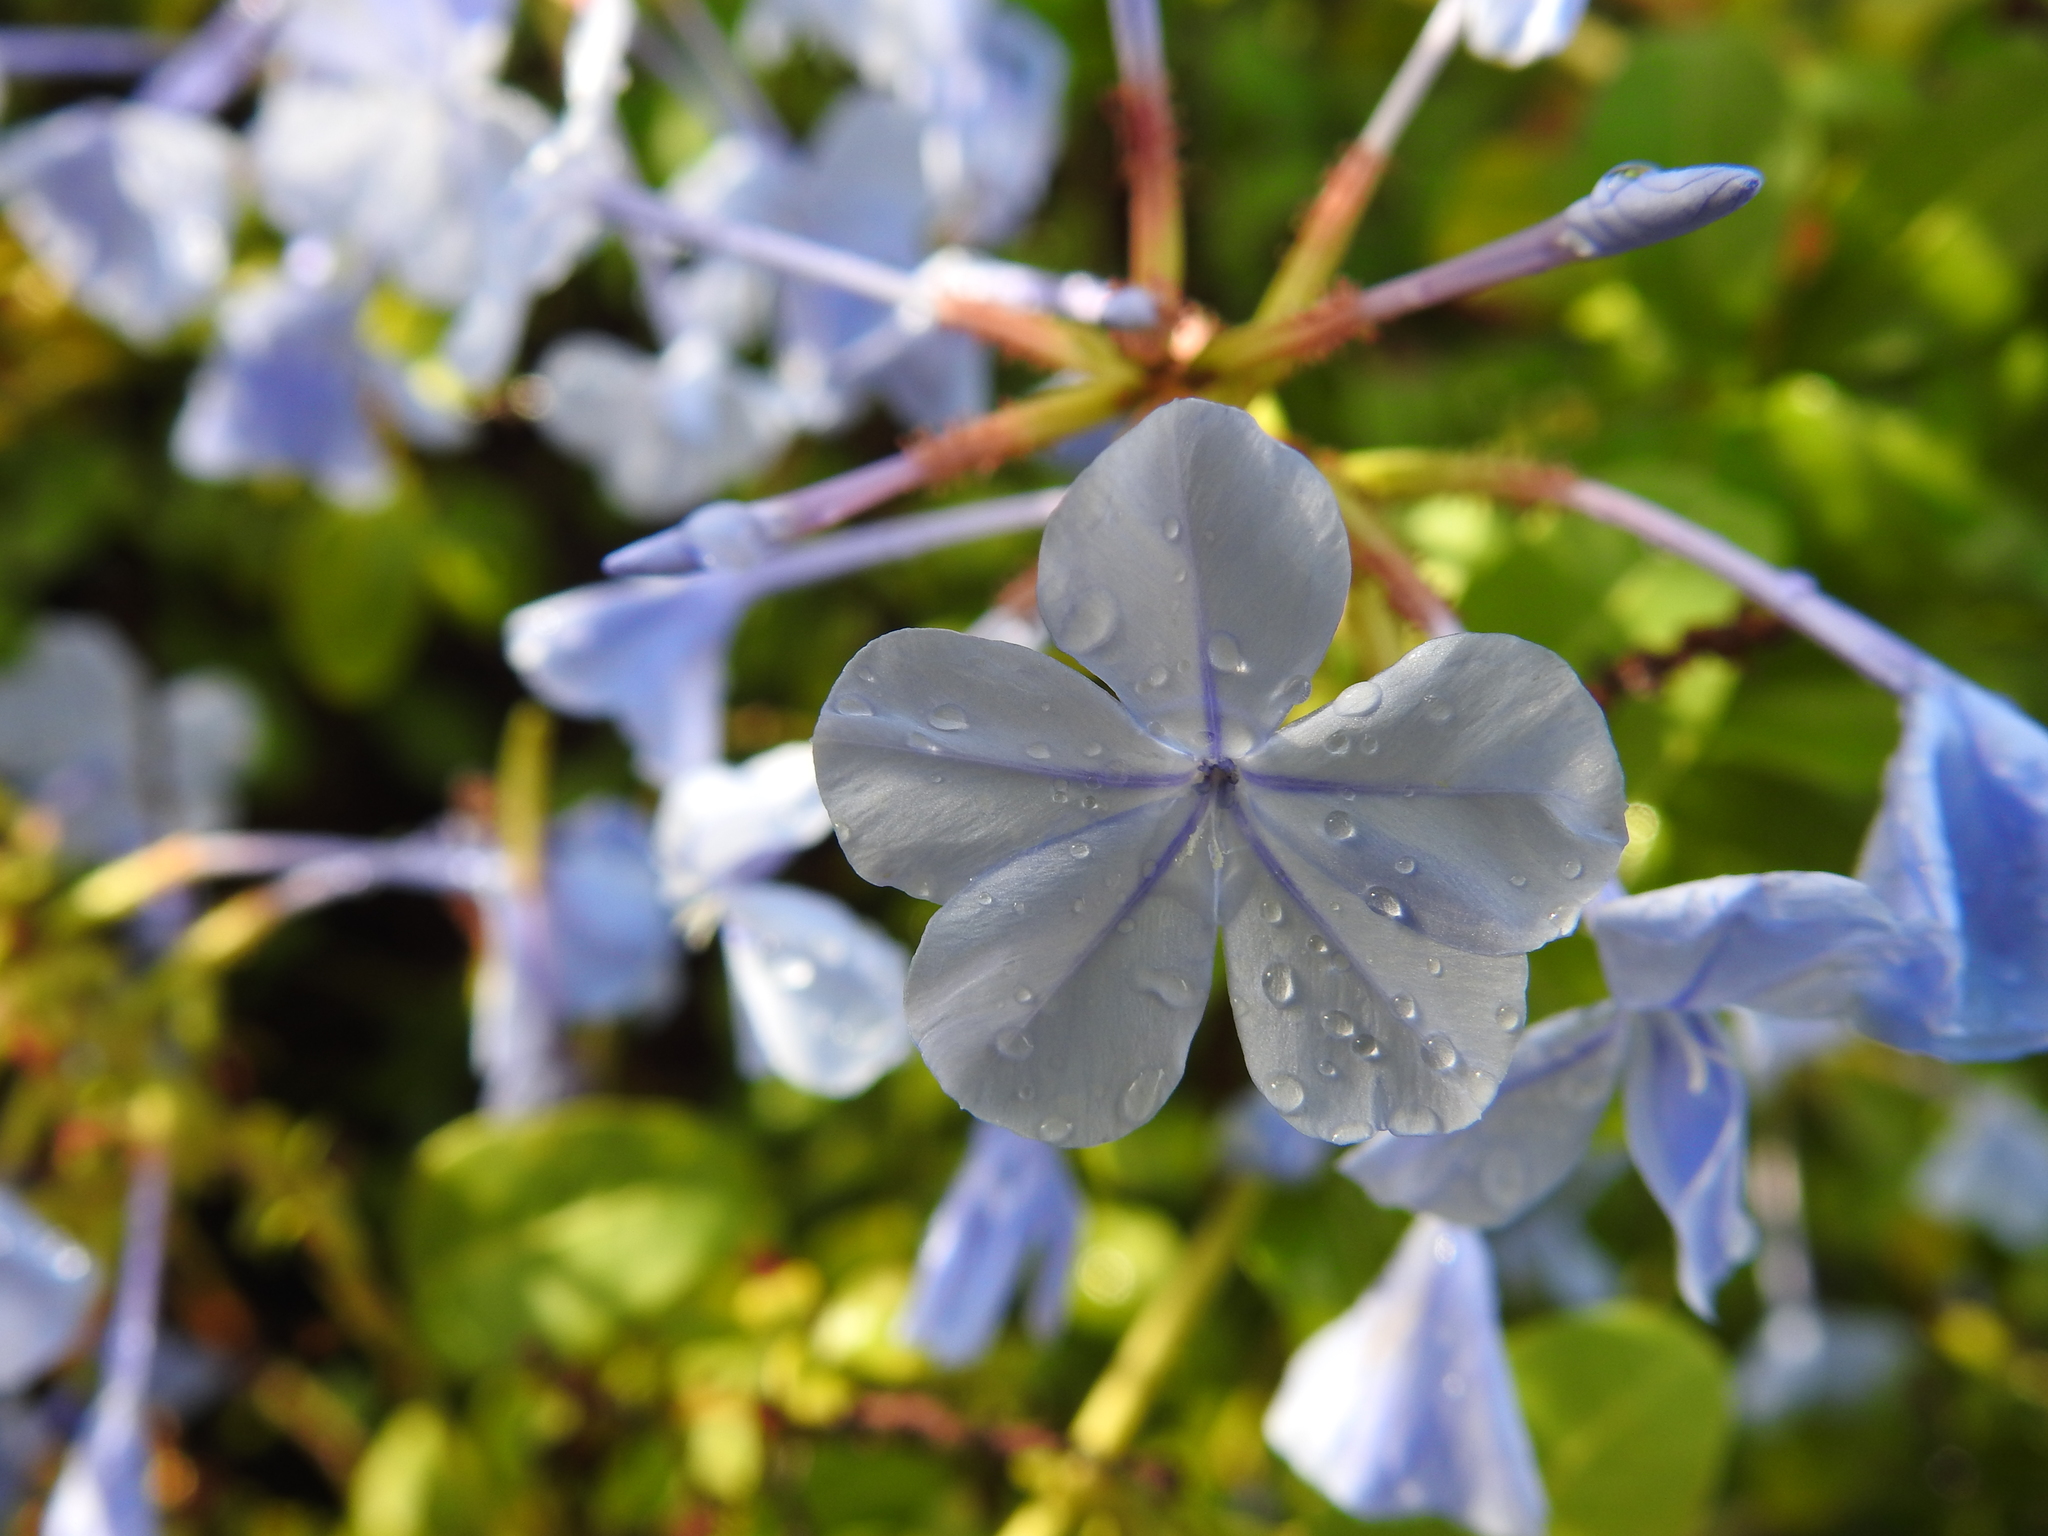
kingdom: Plantae
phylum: Tracheophyta
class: Magnoliopsida
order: Caryophyllales
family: Plumbaginaceae
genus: Plumbago
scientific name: Plumbago auriculata
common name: Cape leadwort
